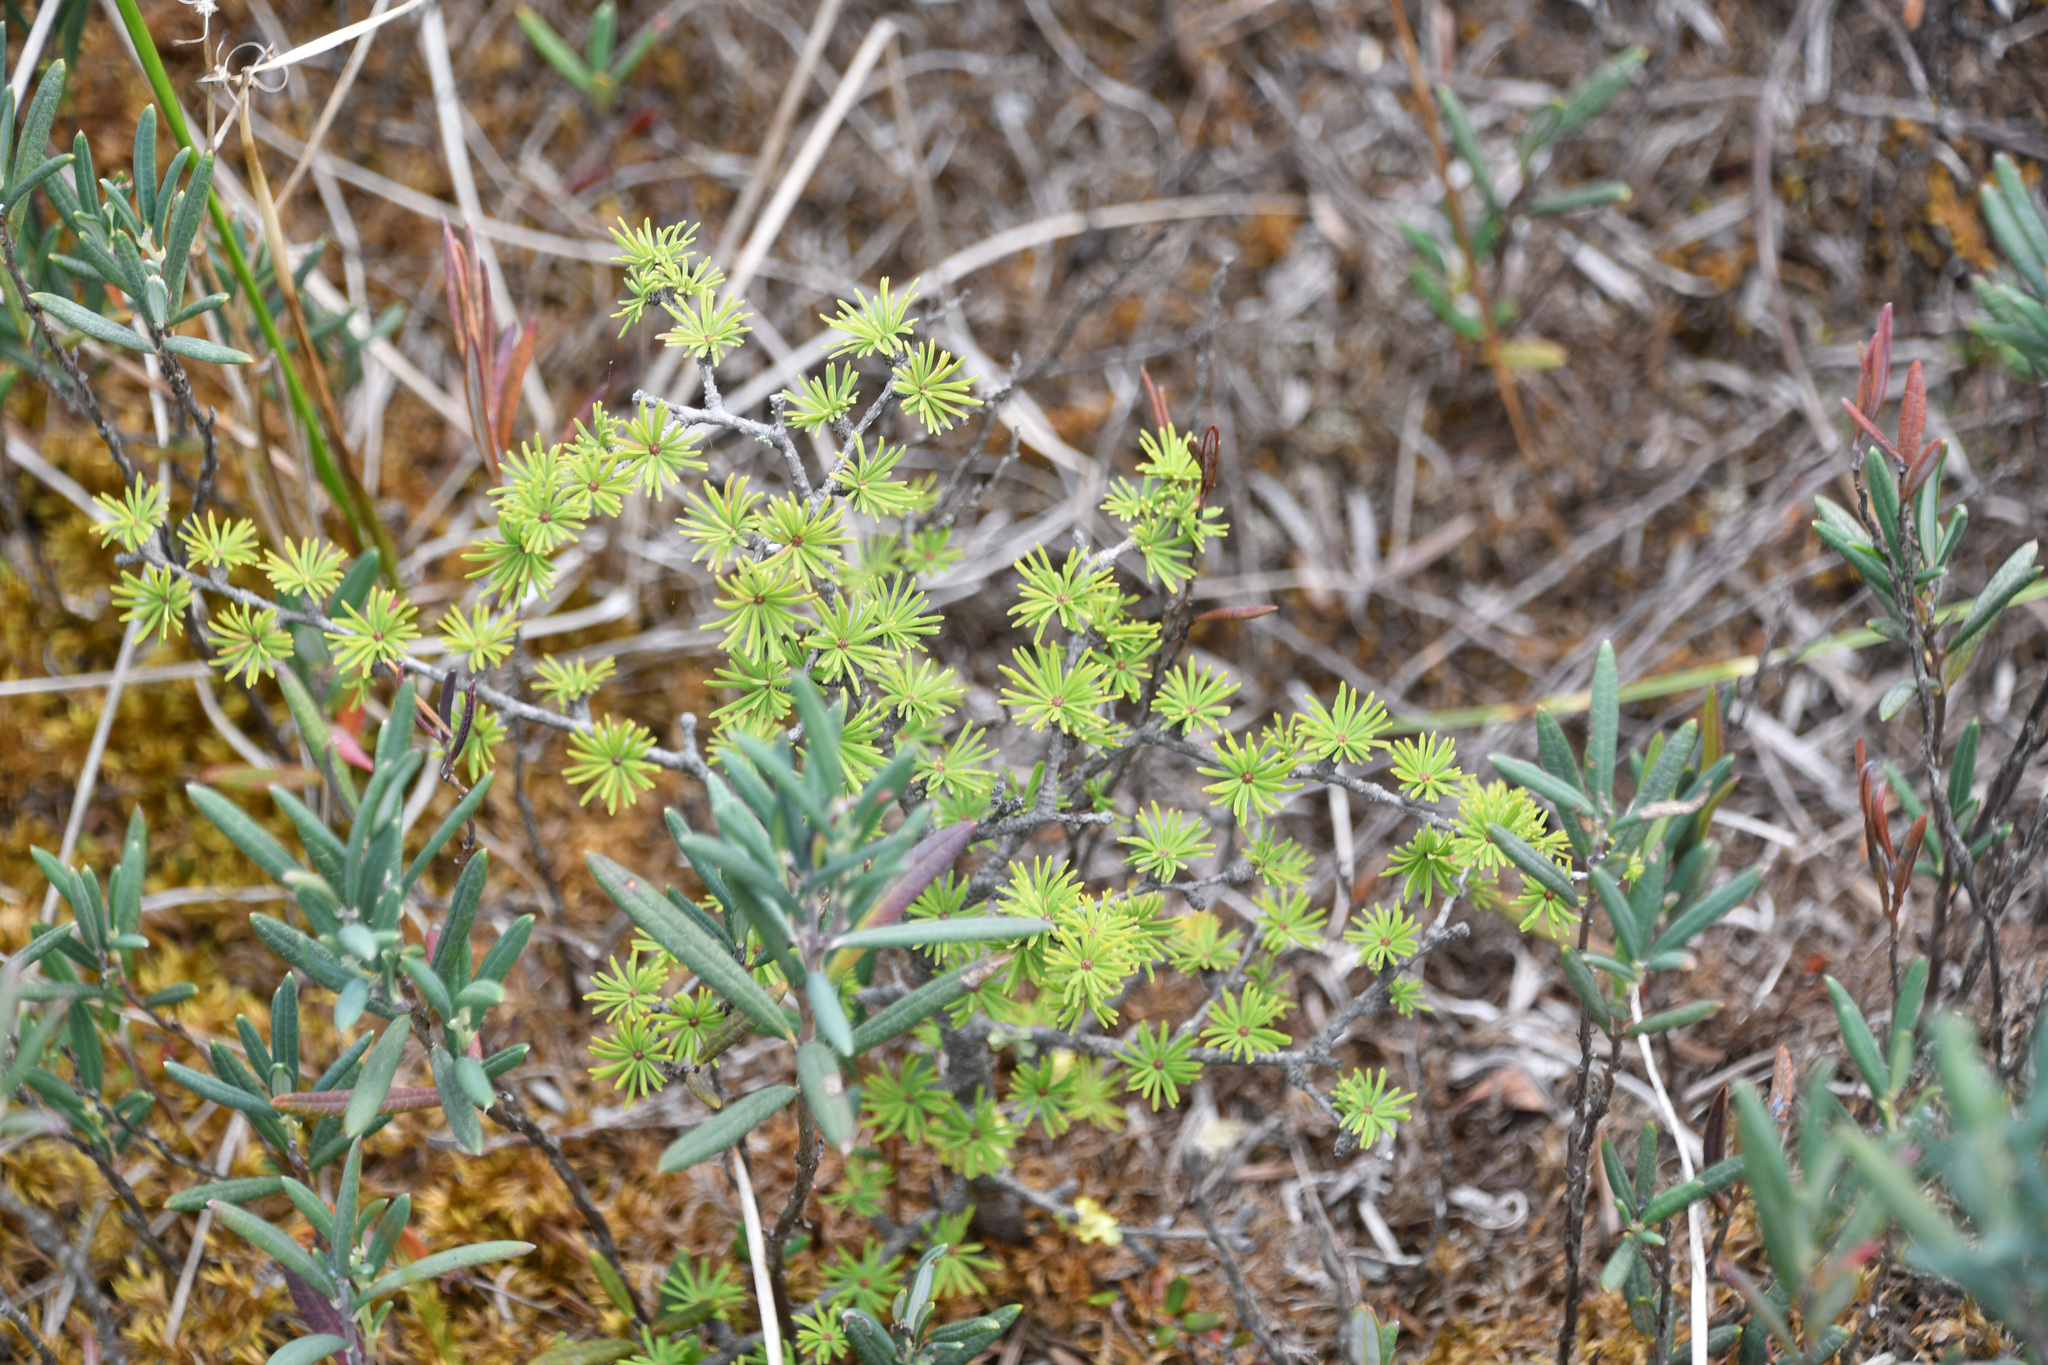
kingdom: Plantae
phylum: Tracheophyta
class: Pinopsida
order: Pinales
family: Pinaceae
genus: Larix
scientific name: Larix laricina
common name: American larch
